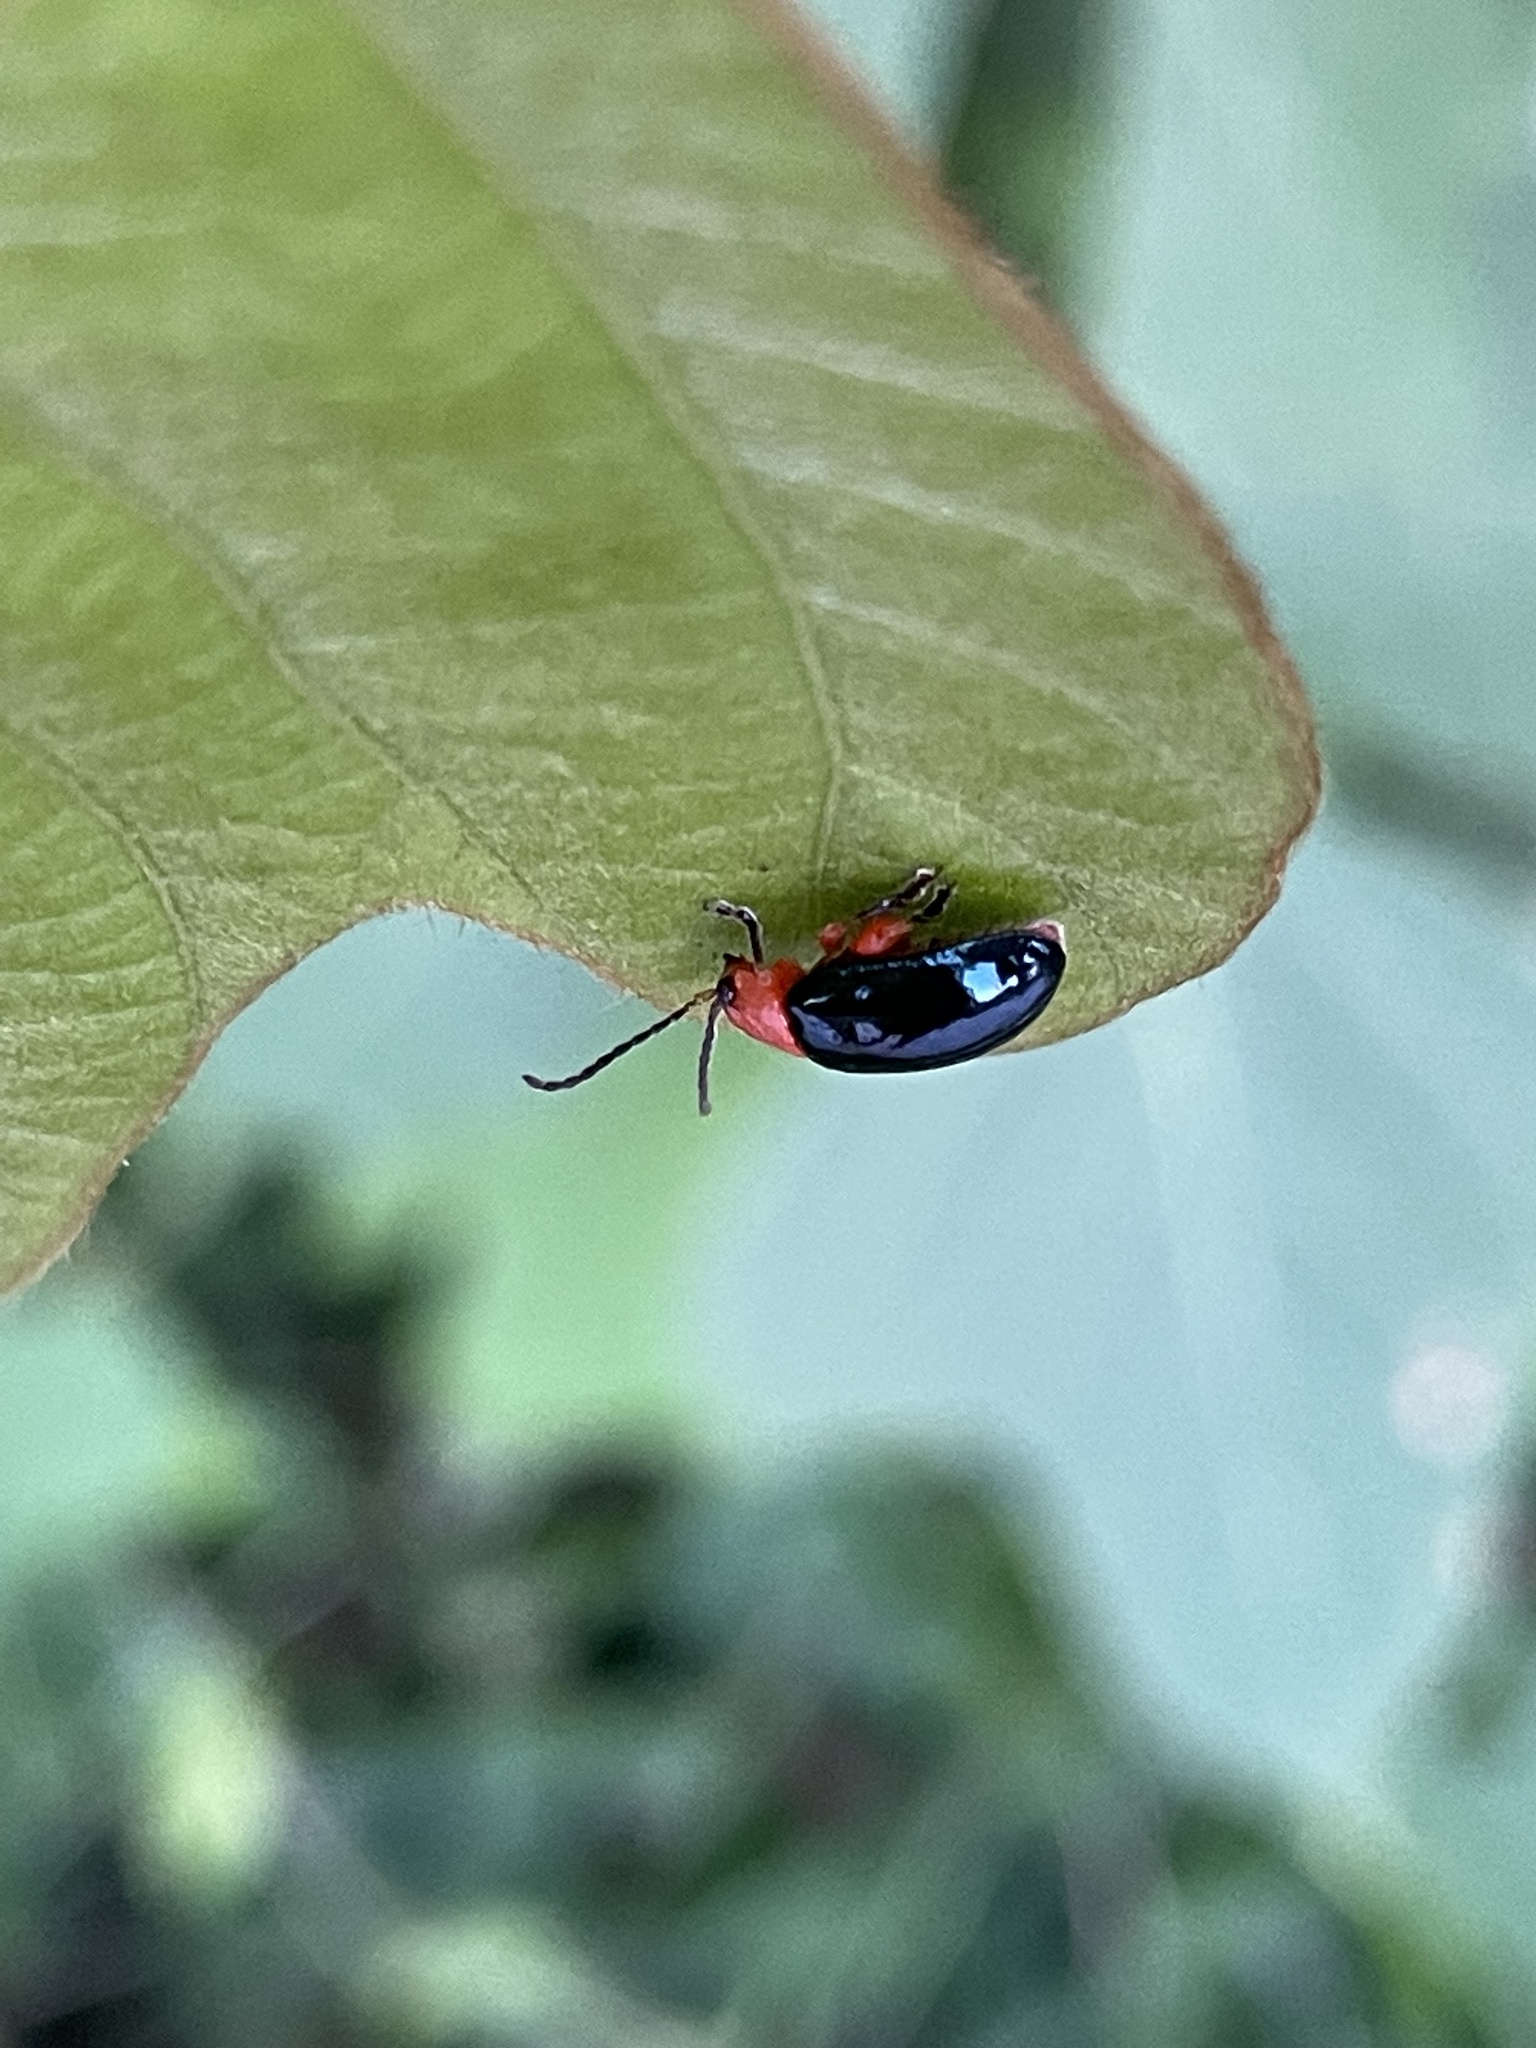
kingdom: Animalia
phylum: Arthropoda
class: Insecta
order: Coleoptera
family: Chrysomelidae
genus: Asphaera
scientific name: Asphaera lustrans
